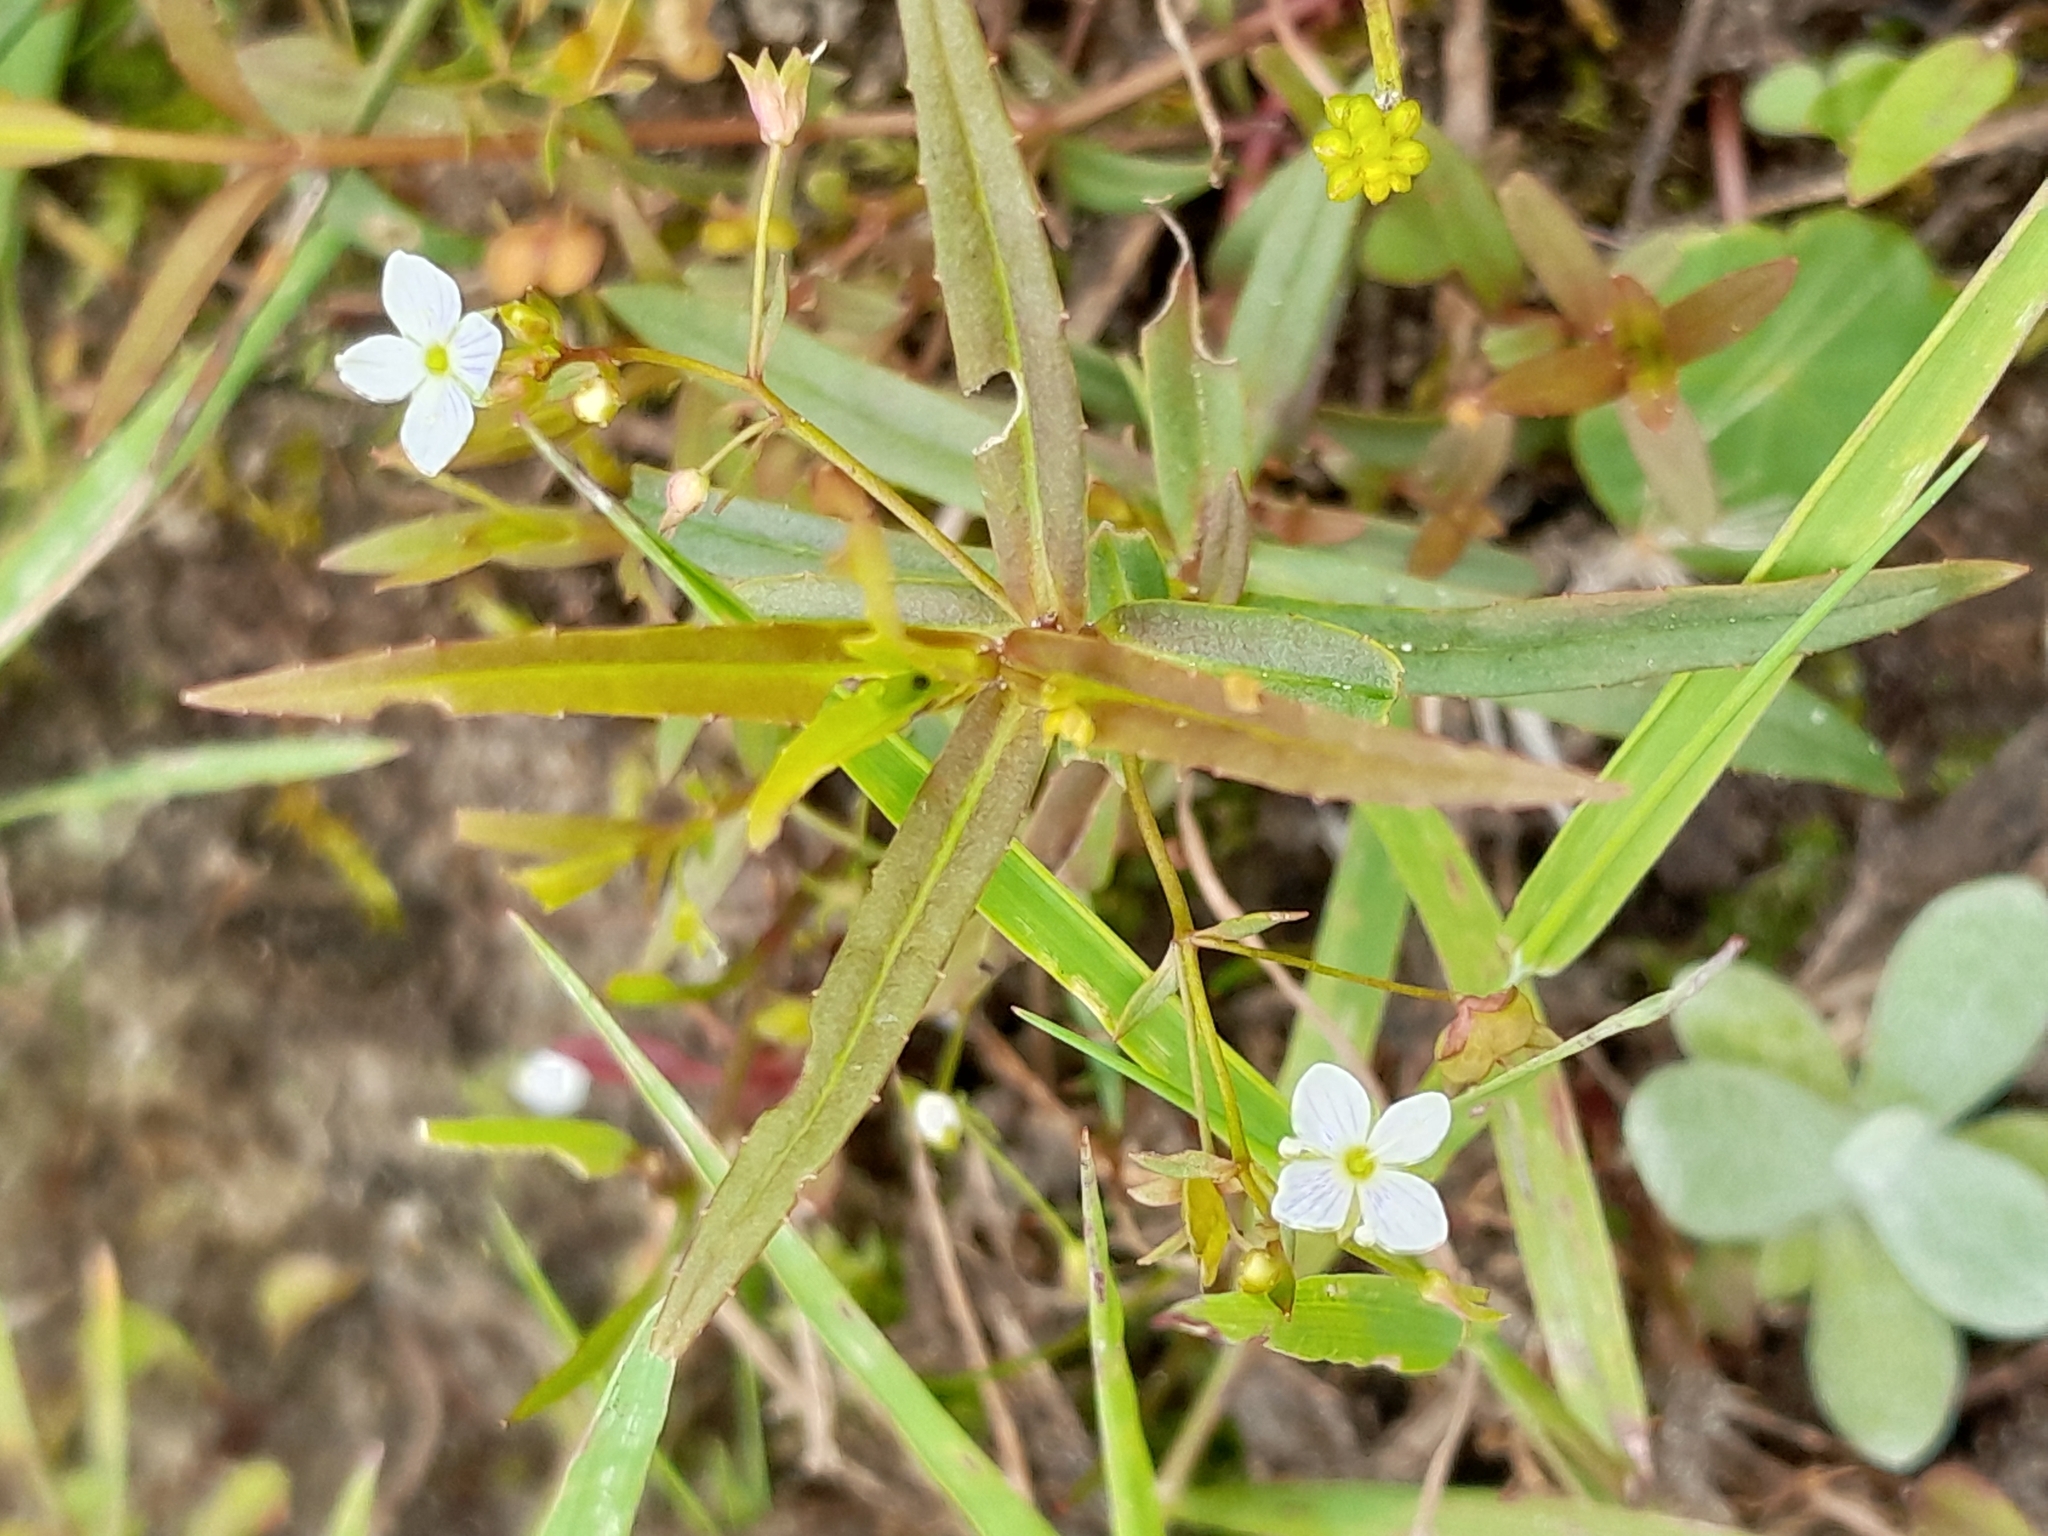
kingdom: Plantae
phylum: Tracheophyta
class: Magnoliopsida
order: Lamiales
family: Plantaginaceae
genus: Veronica
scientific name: Veronica scutellata
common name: Marsh speedwell
